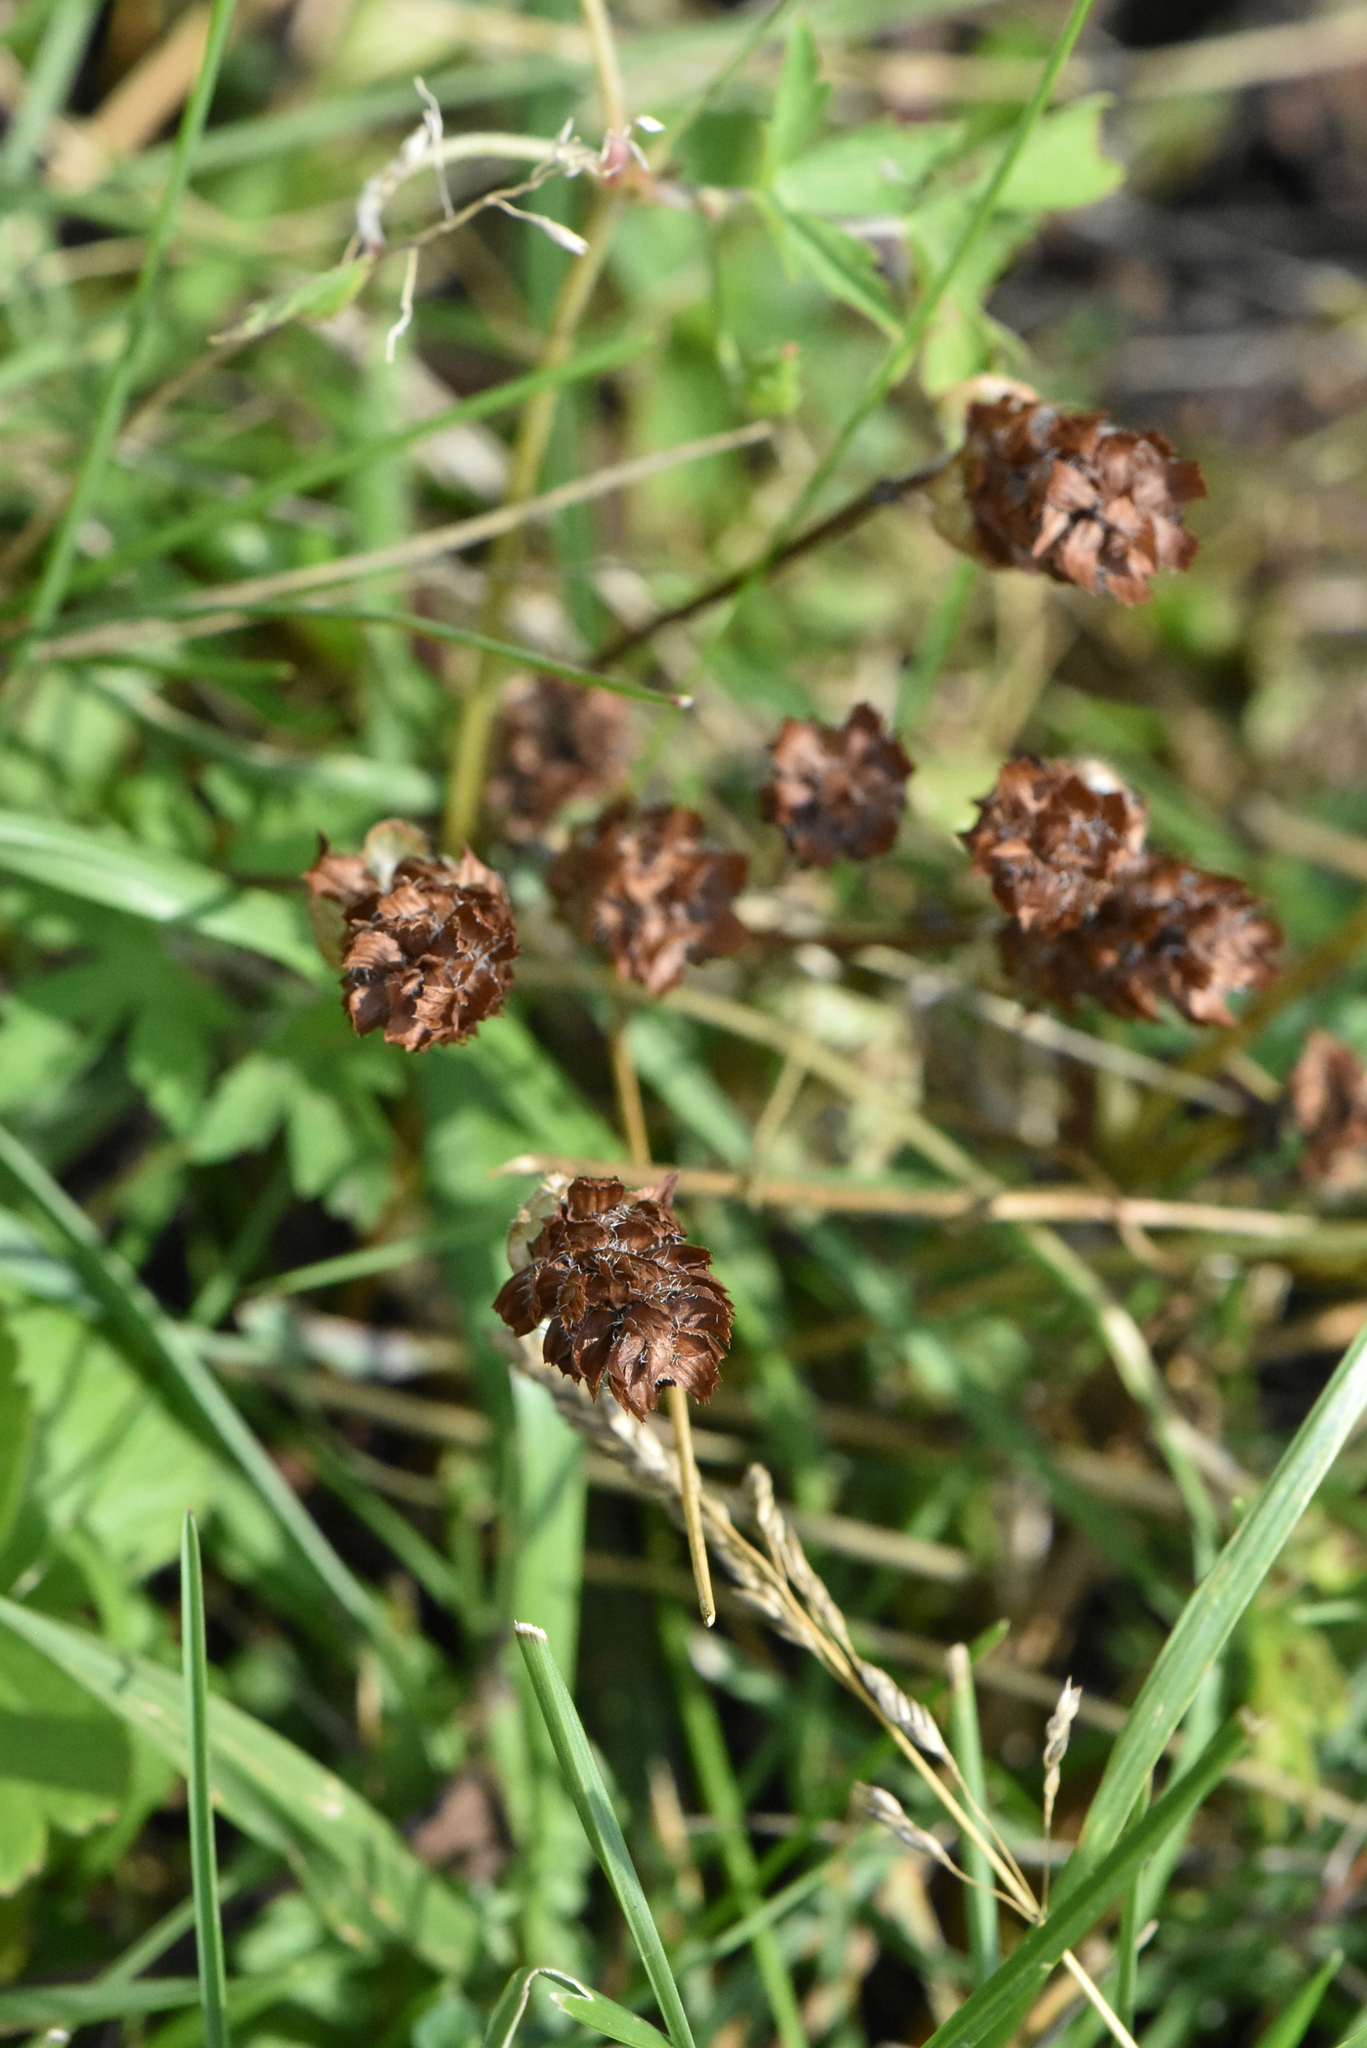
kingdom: Plantae
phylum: Tracheophyta
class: Magnoliopsida
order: Lamiales
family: Lamiaceae
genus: Prunella
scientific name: Prunella vulgaris
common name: Heal-all
